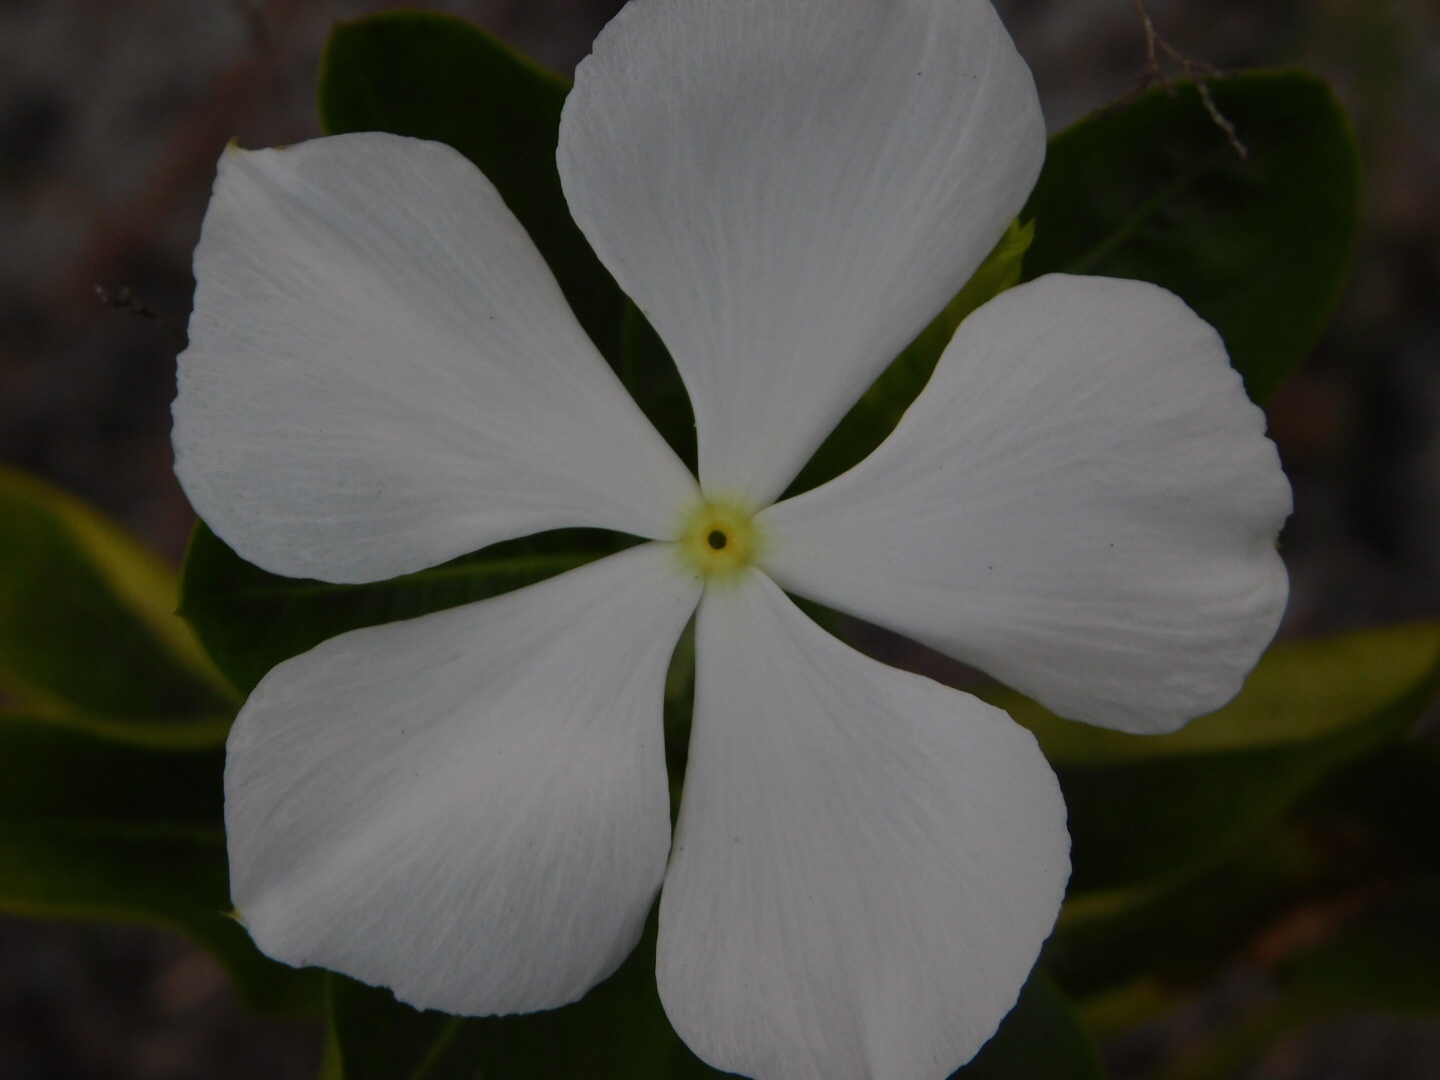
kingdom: Plantae
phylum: Tracheophyta
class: Magnoliopsida
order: Gentianales
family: Apocynaceae
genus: Catharanthus
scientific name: Catharanthus roseus
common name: Madagascar periwinkle
